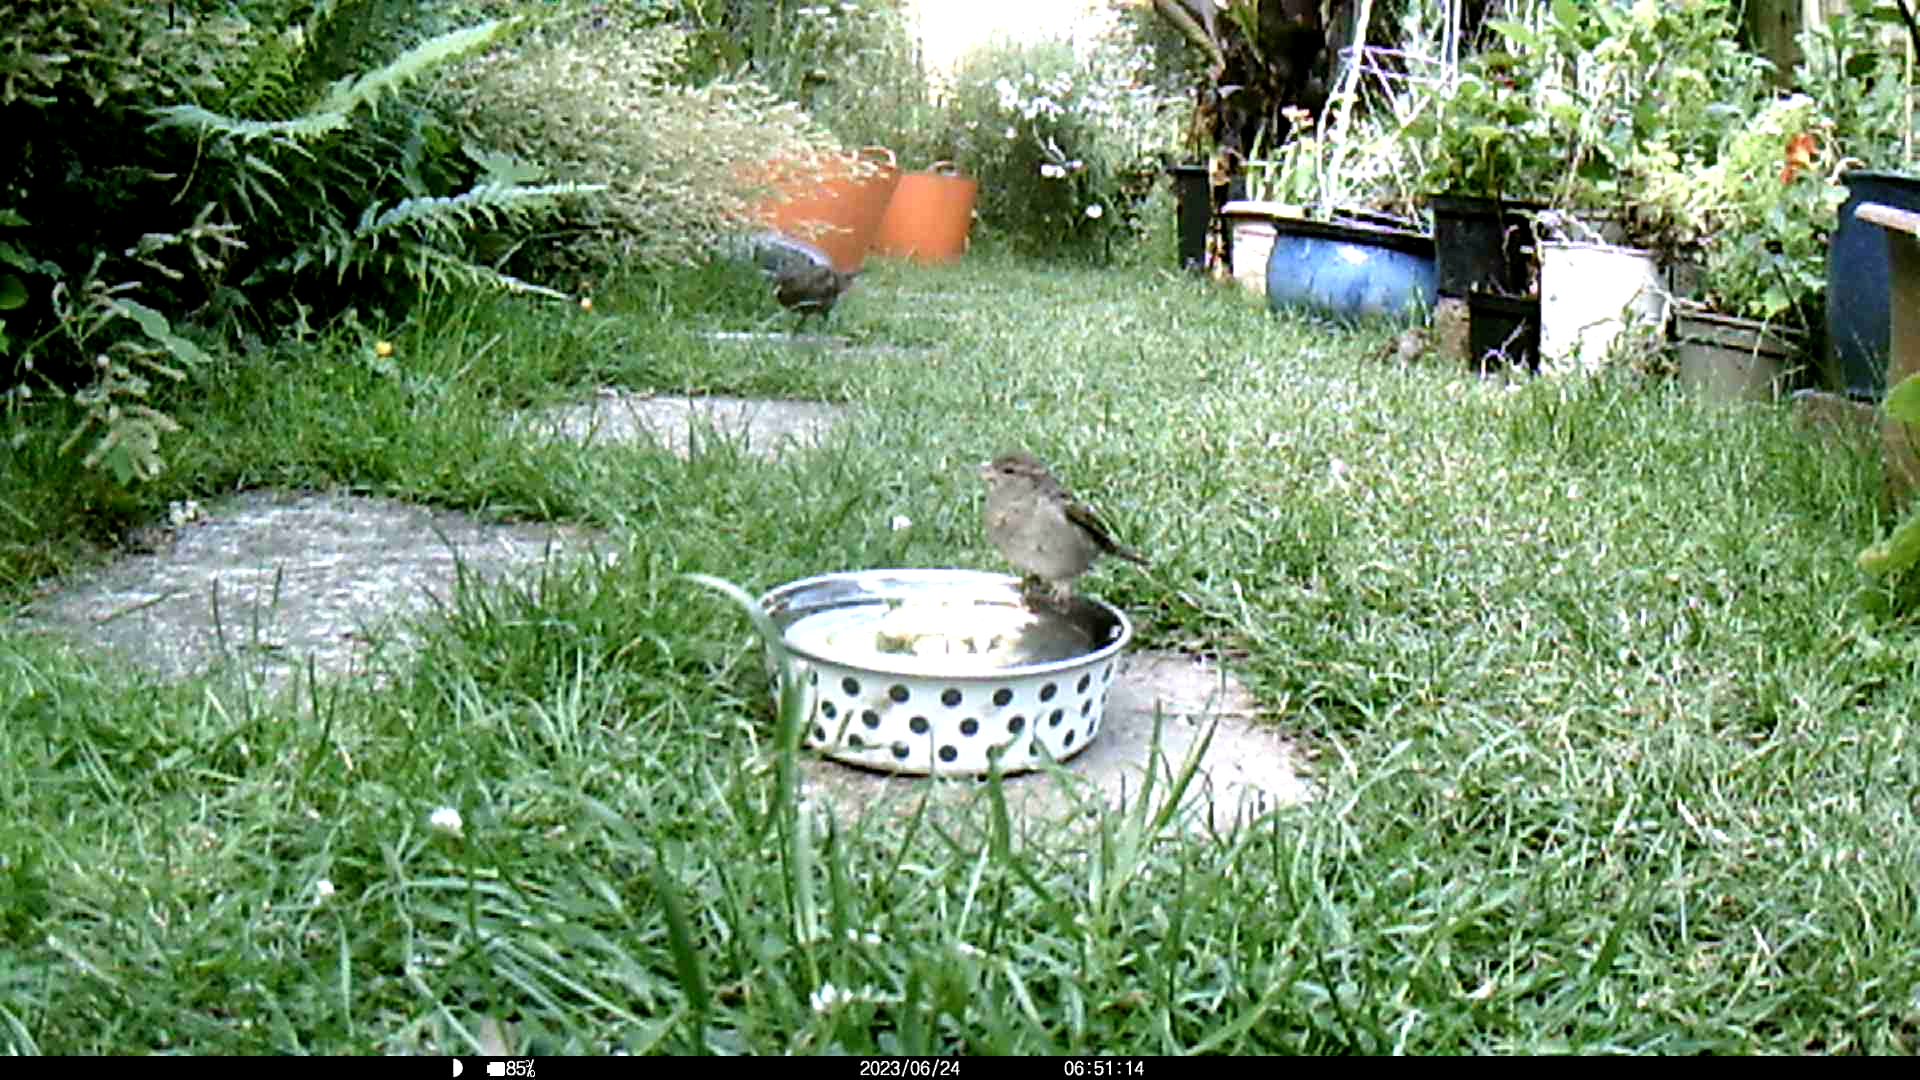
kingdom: Animalia
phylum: Chordata
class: Aves
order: Passeriformes
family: Passeridae
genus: Passer
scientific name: Passer domesticus
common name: House sparrow
